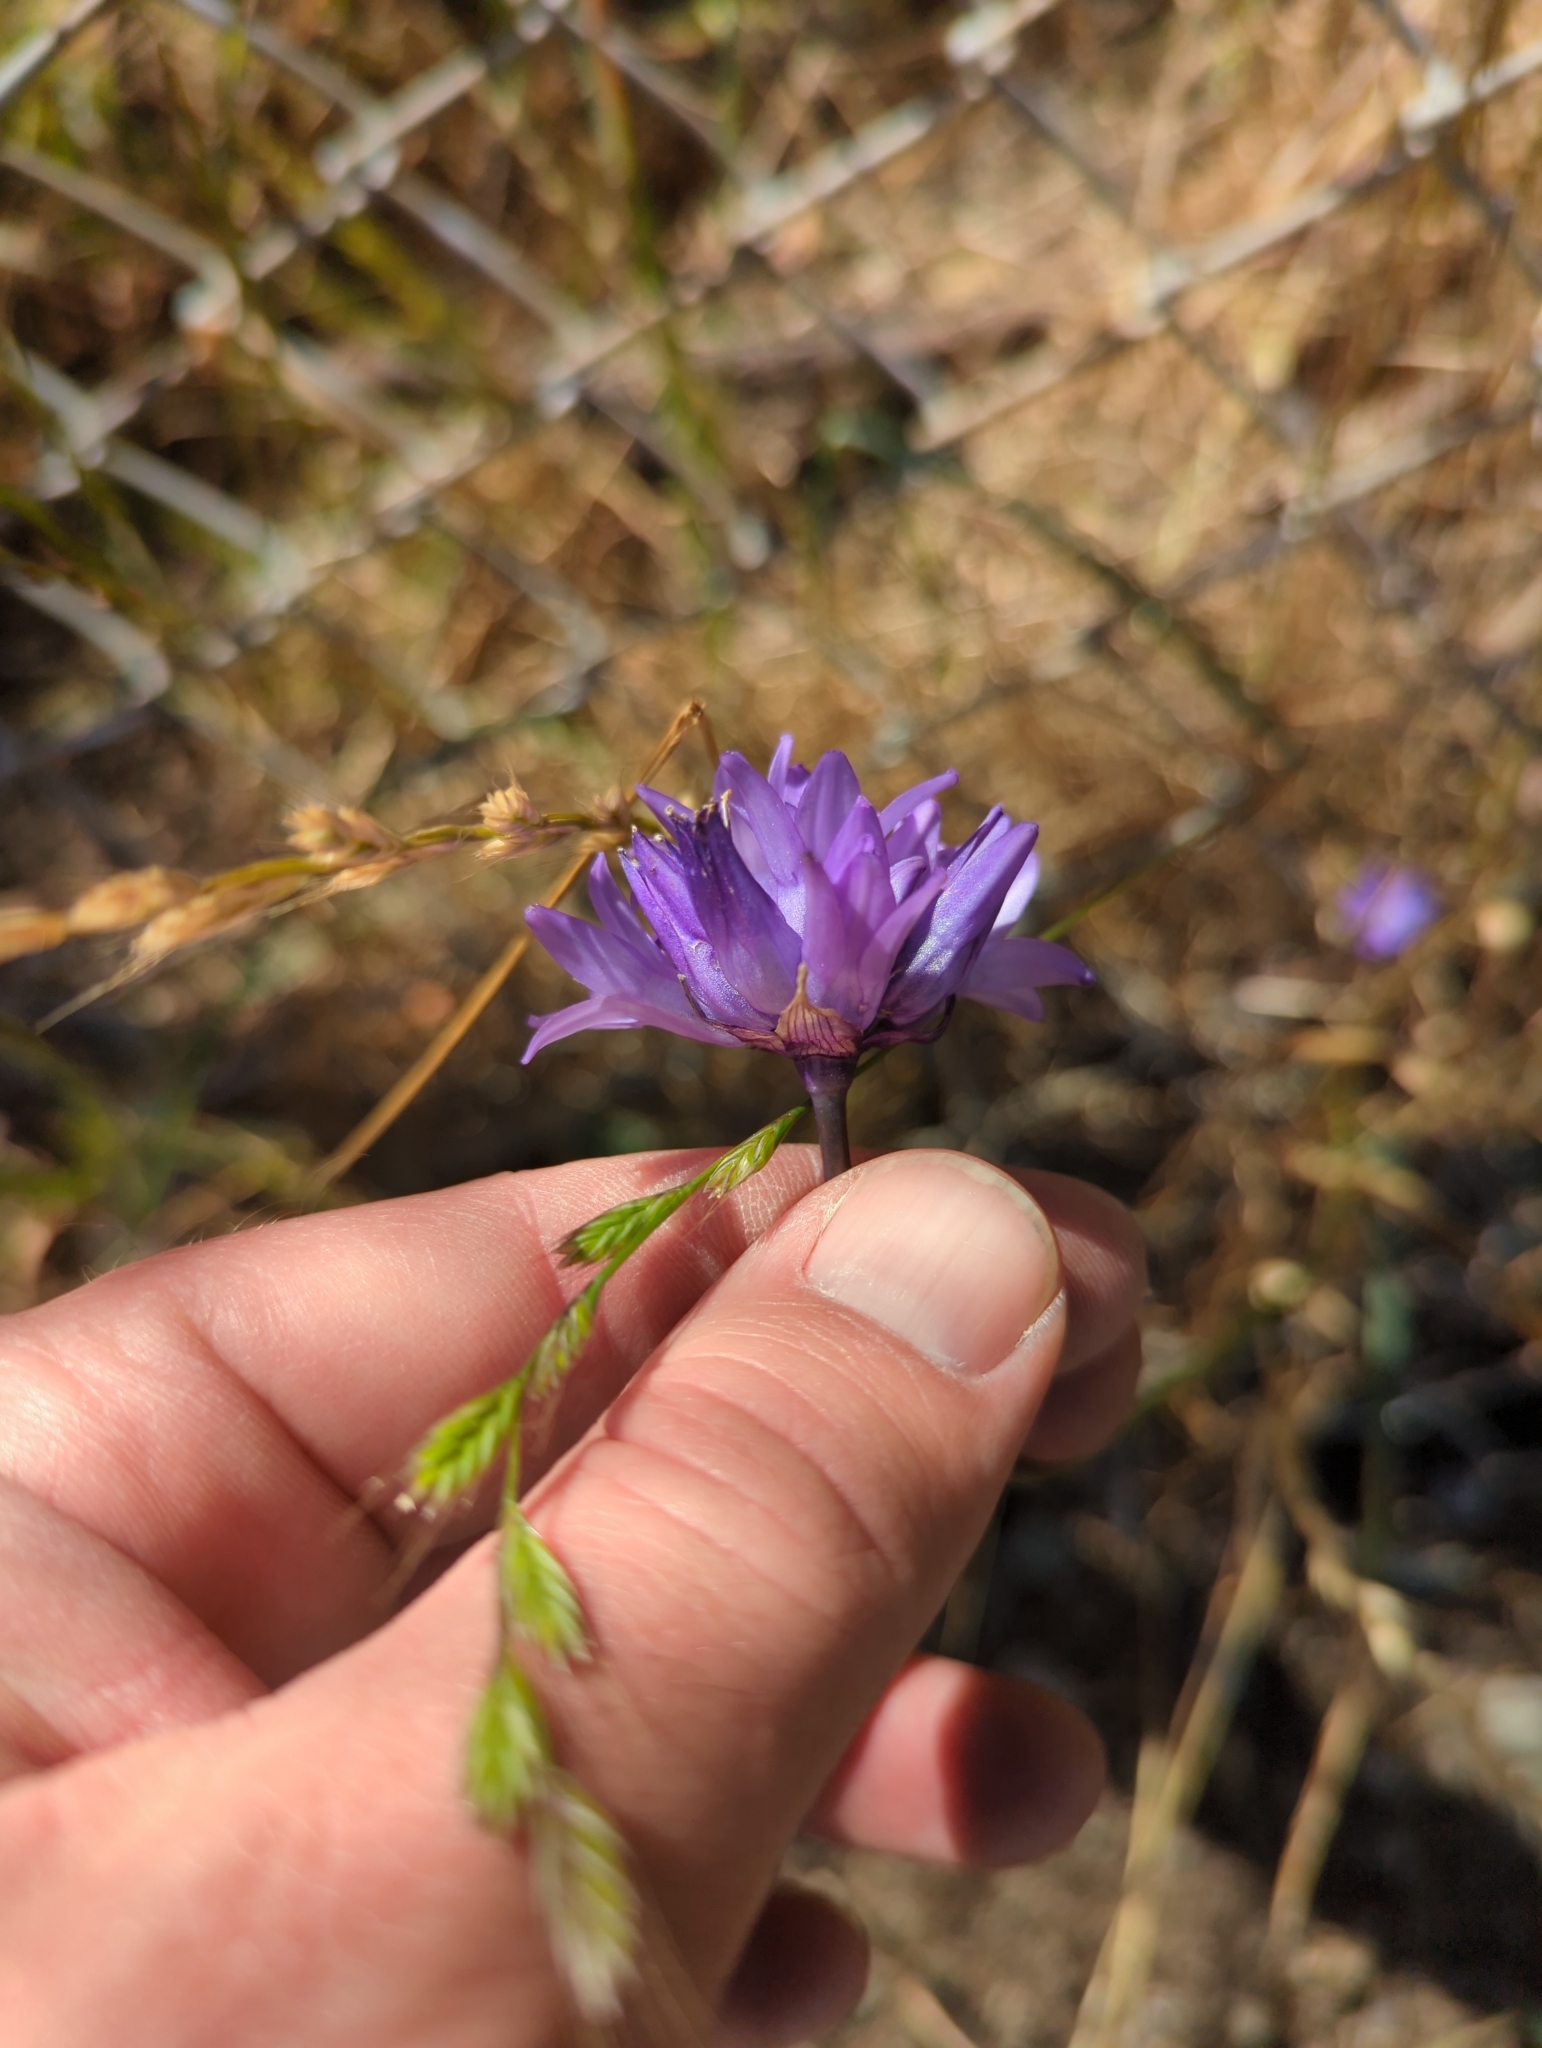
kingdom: Plantae
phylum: Tracheophyta
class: Liliopsida
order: Asparagales
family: Asparagaceae
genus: Dipterostemon
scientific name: Dipterostemon capitatus
